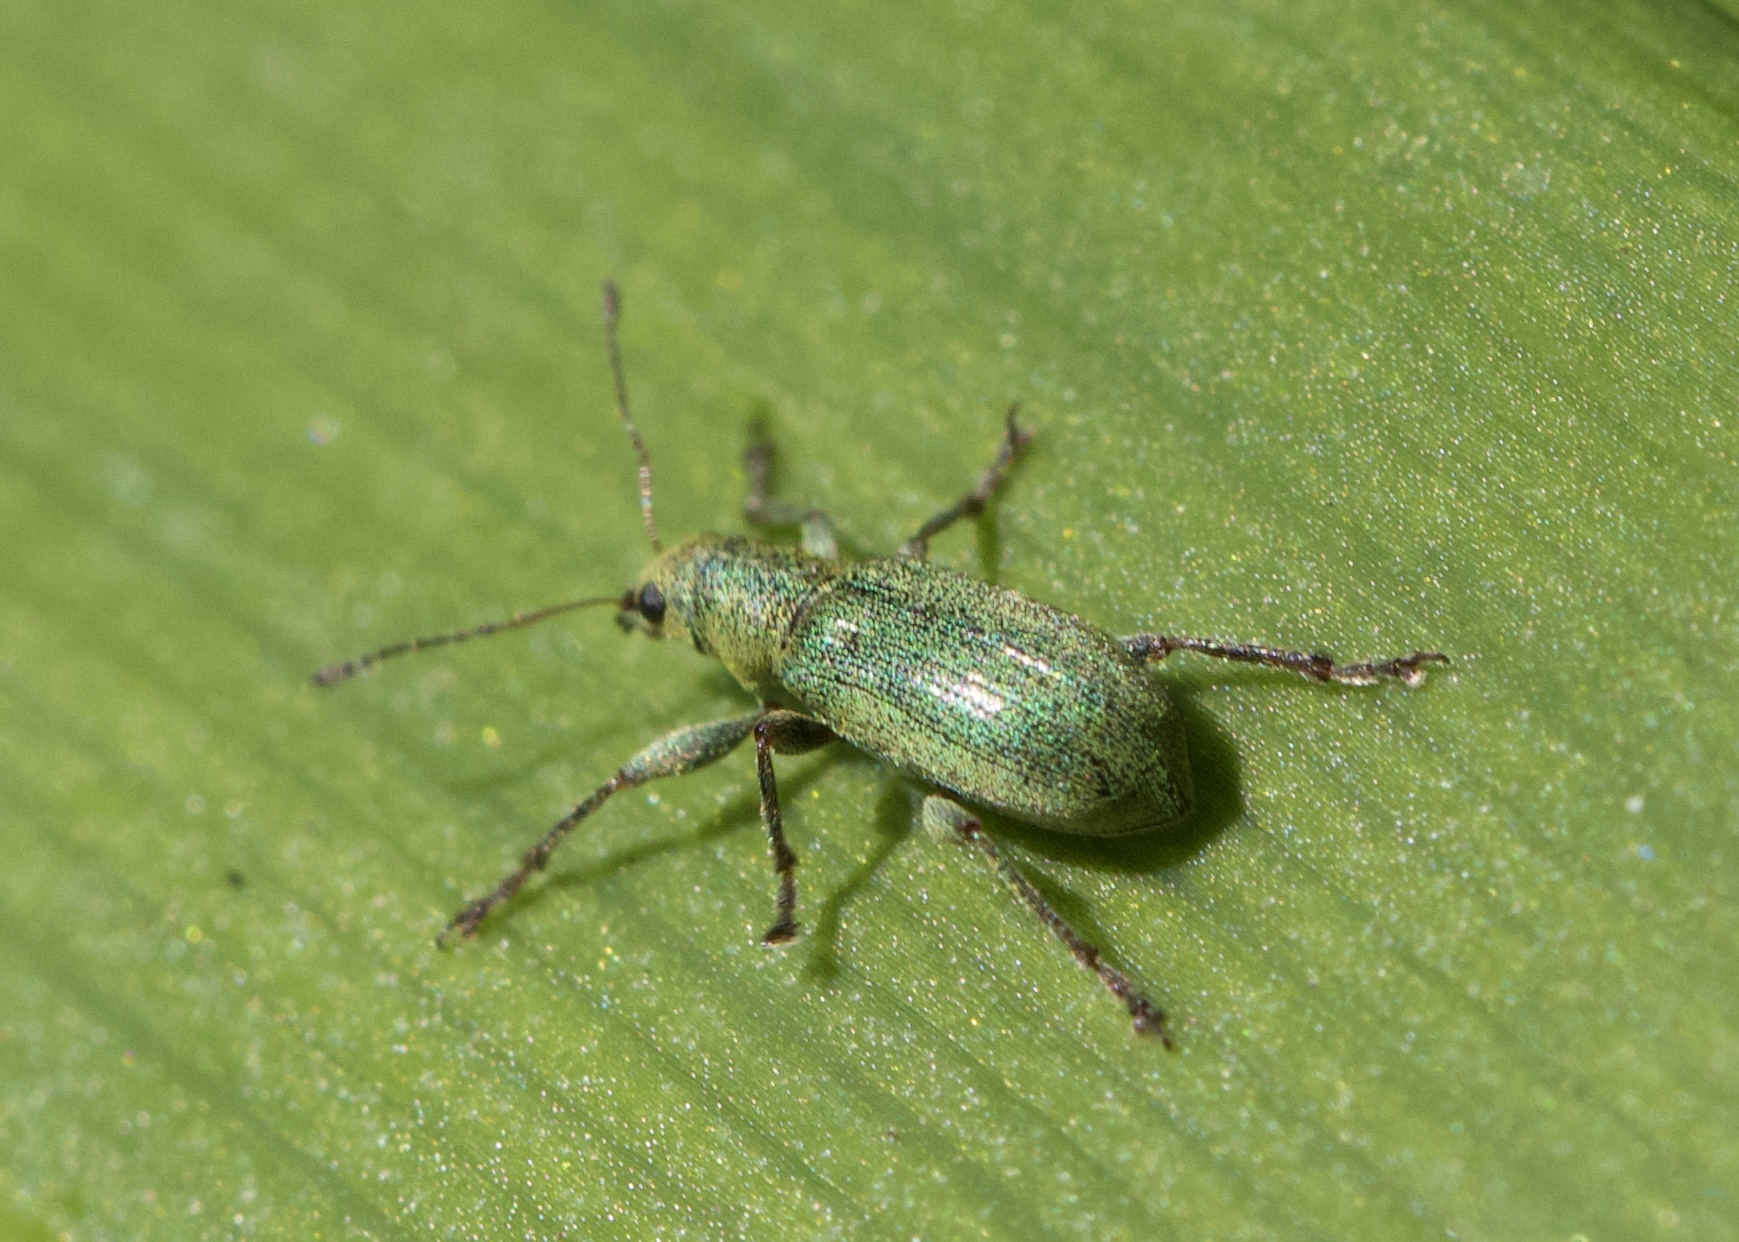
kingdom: Animalia
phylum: Arthropoda
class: Insecta
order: Coleoptera
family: Curculionidae
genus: Pachyrhinus
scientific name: Pachyrhinus lethierryi
